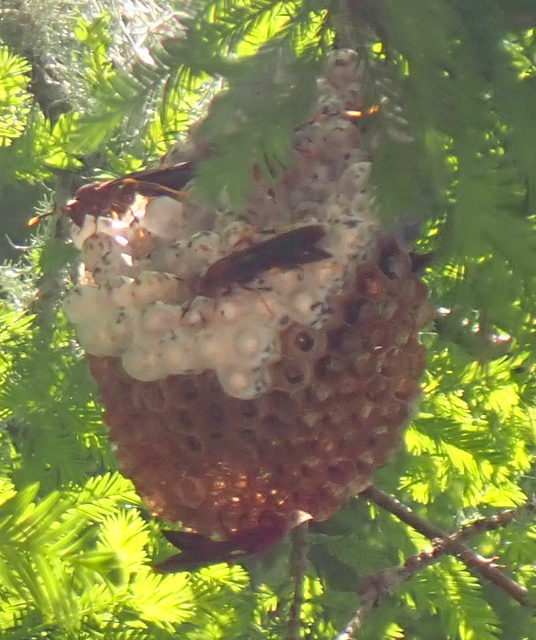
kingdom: Animalia
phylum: Arthropoda
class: Insecta
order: Hymenoptera
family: Eumenidae
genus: Polistes
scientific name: Polistes annularis
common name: Ringed paper wasp
